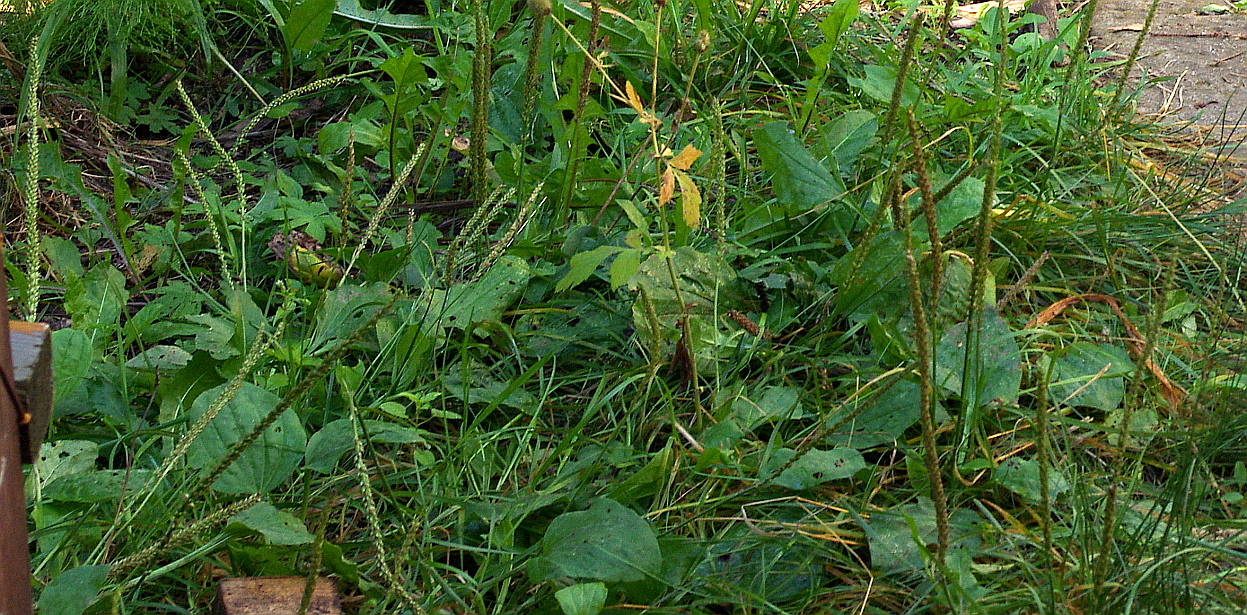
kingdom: Plantae
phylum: Tracheophyta
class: Magnoliopsida
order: Lamiales
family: Plantaginaceae
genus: Plantago
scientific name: Plantago major
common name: Common plantain
